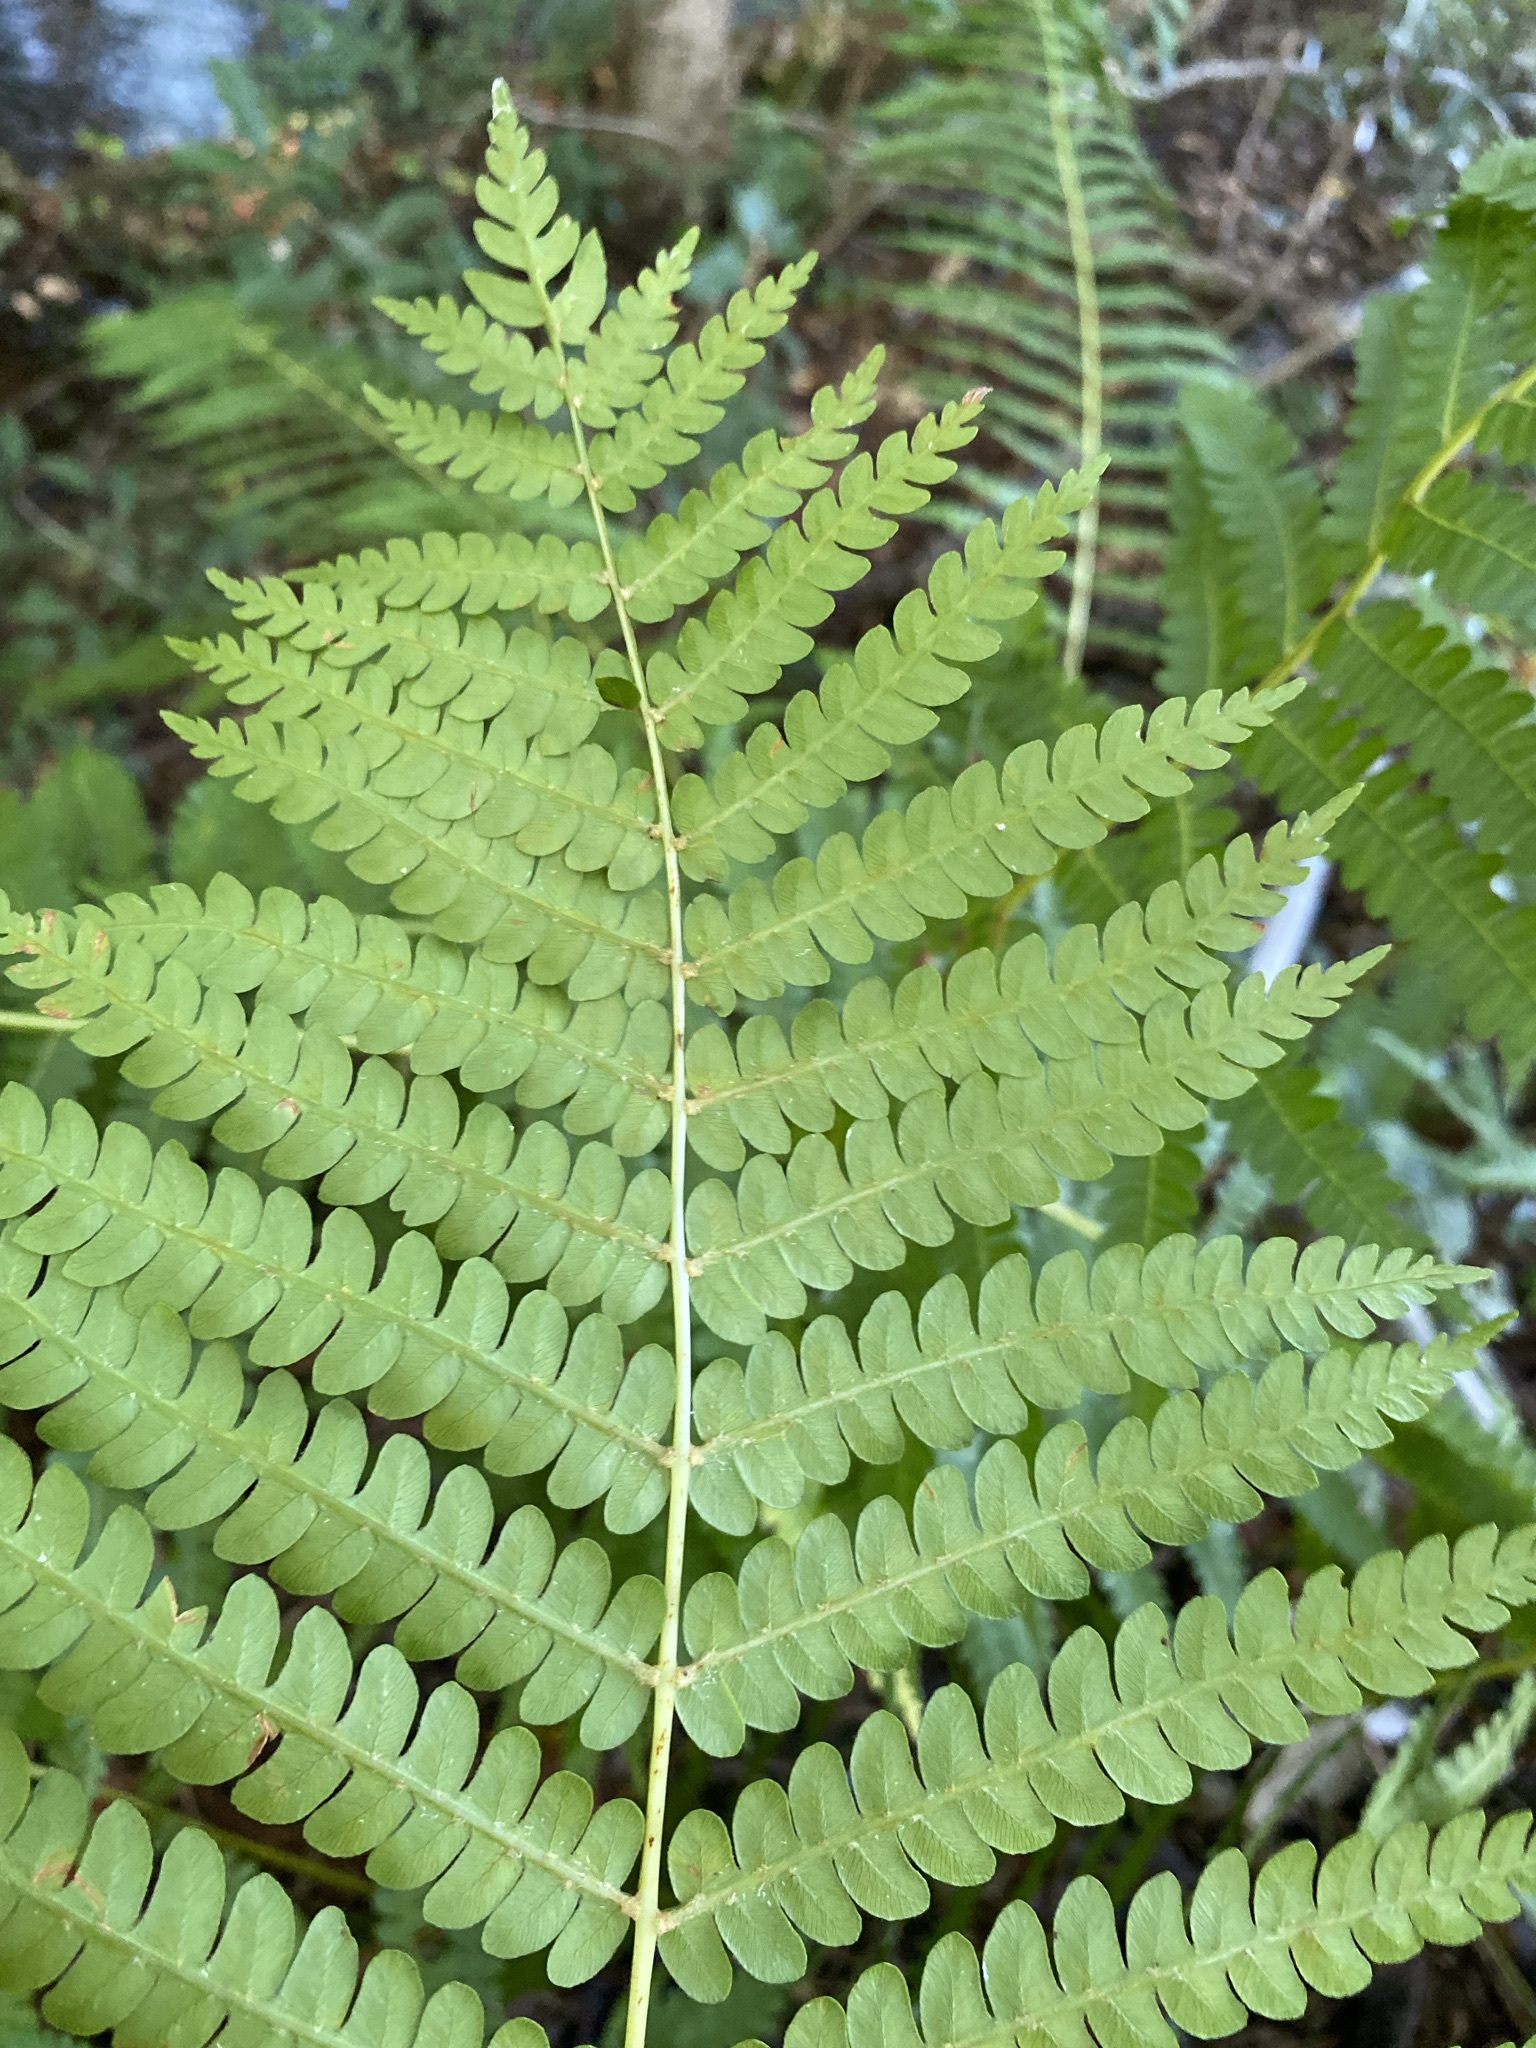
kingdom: Plantae
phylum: Tracheophyta
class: Polypodiopsida
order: Osmundales
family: Osmundaceae
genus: Osmundastrum
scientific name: Osmundastrum cinnamomeum
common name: Cinnamon fern
